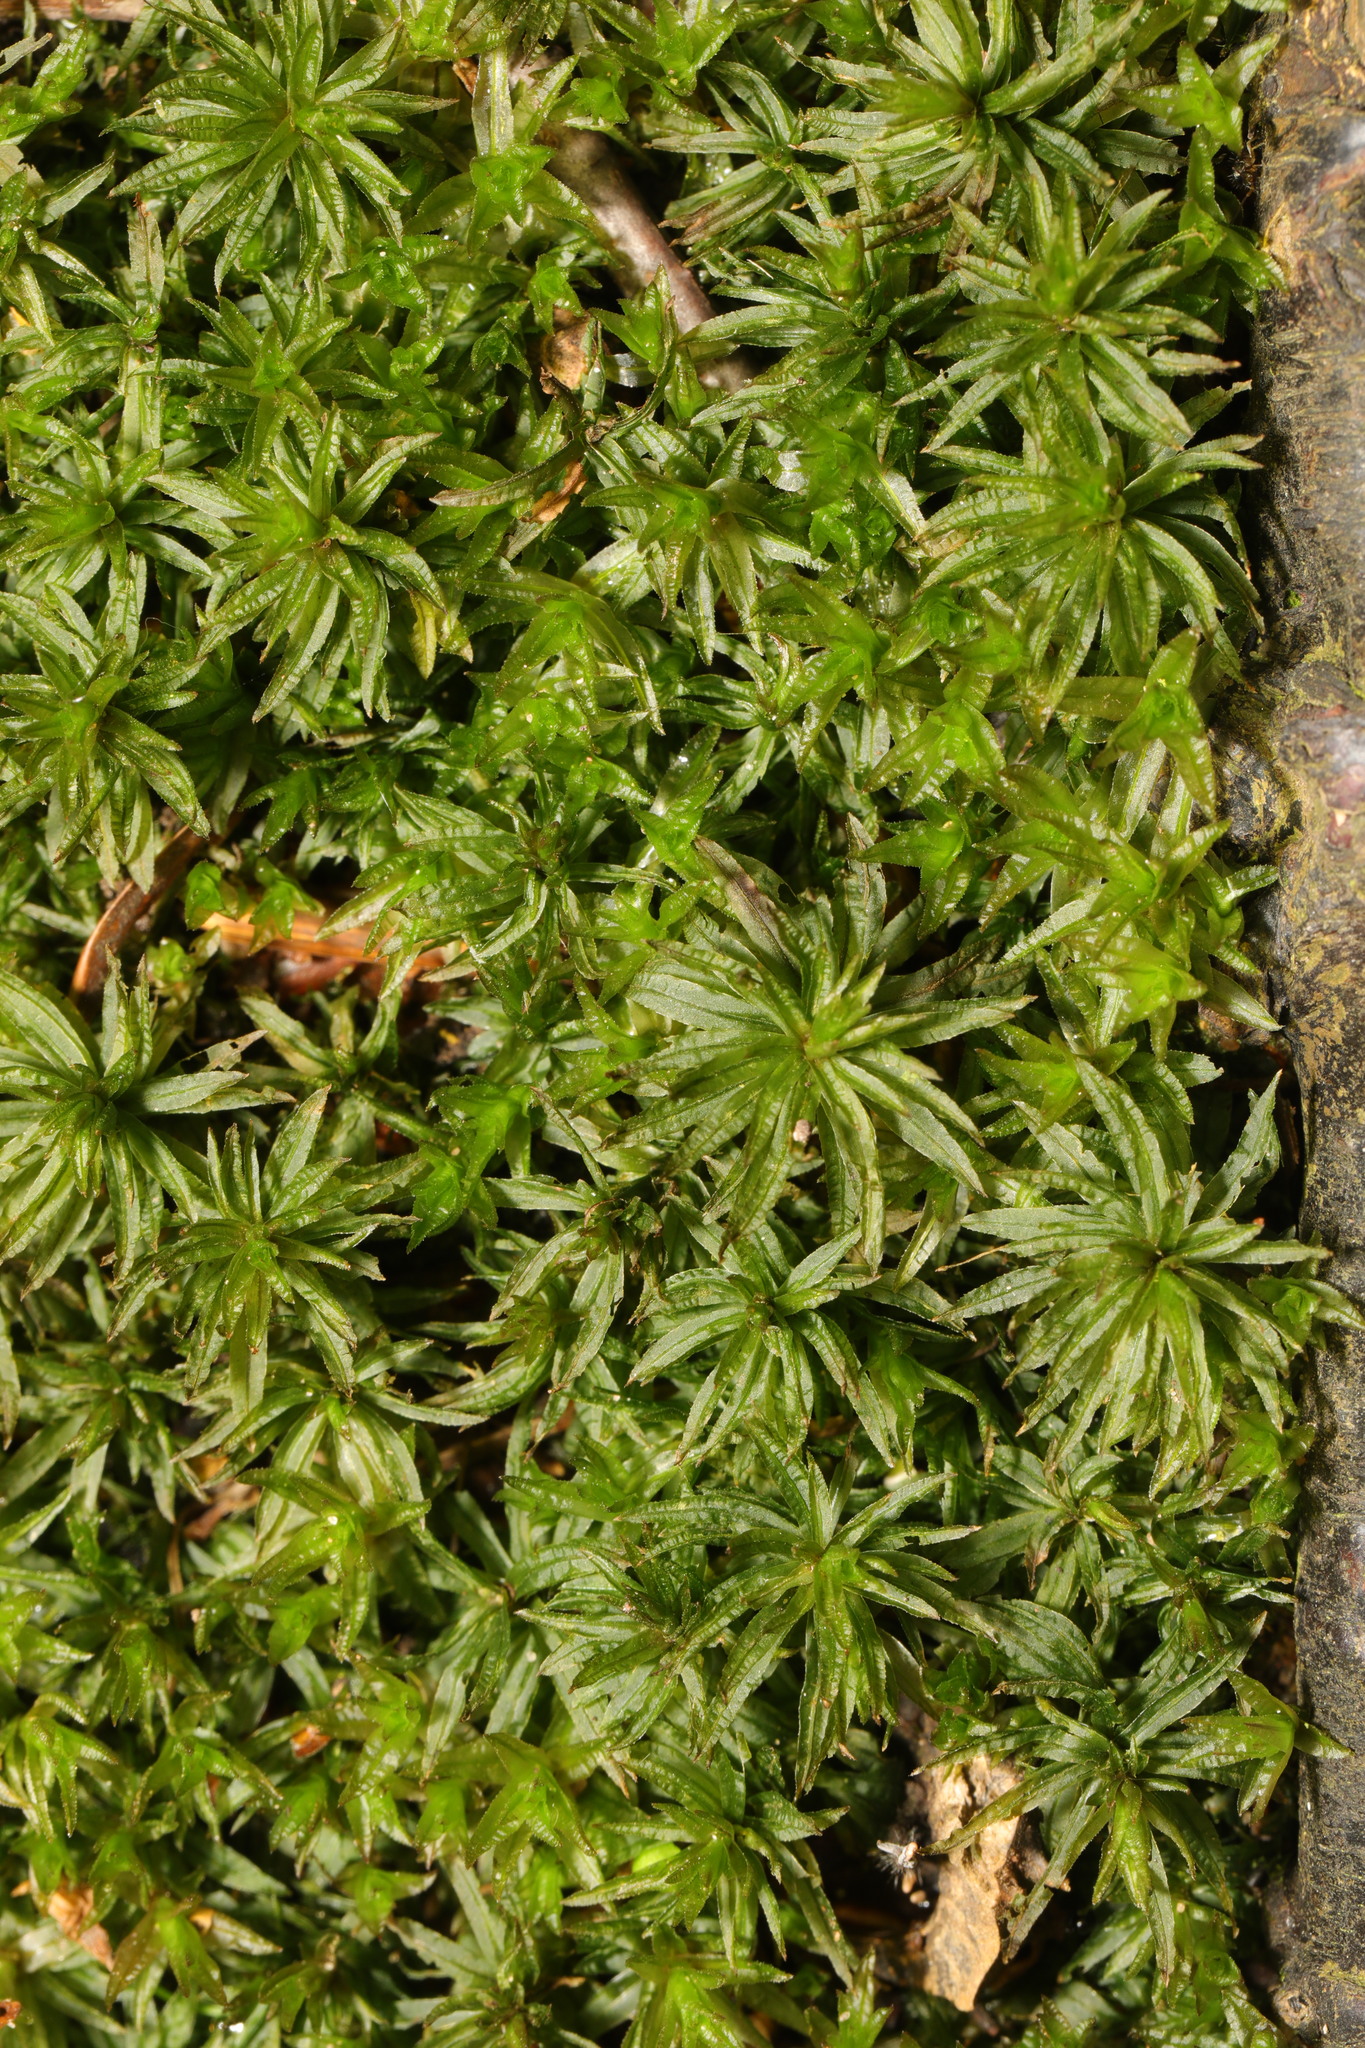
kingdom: Plantae
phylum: Bryophyta
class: Polytrichopsida
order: Polytrichales
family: Polytrichaceae
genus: Atrichum
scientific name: Atrichum undulatum
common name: Common smoothcap
